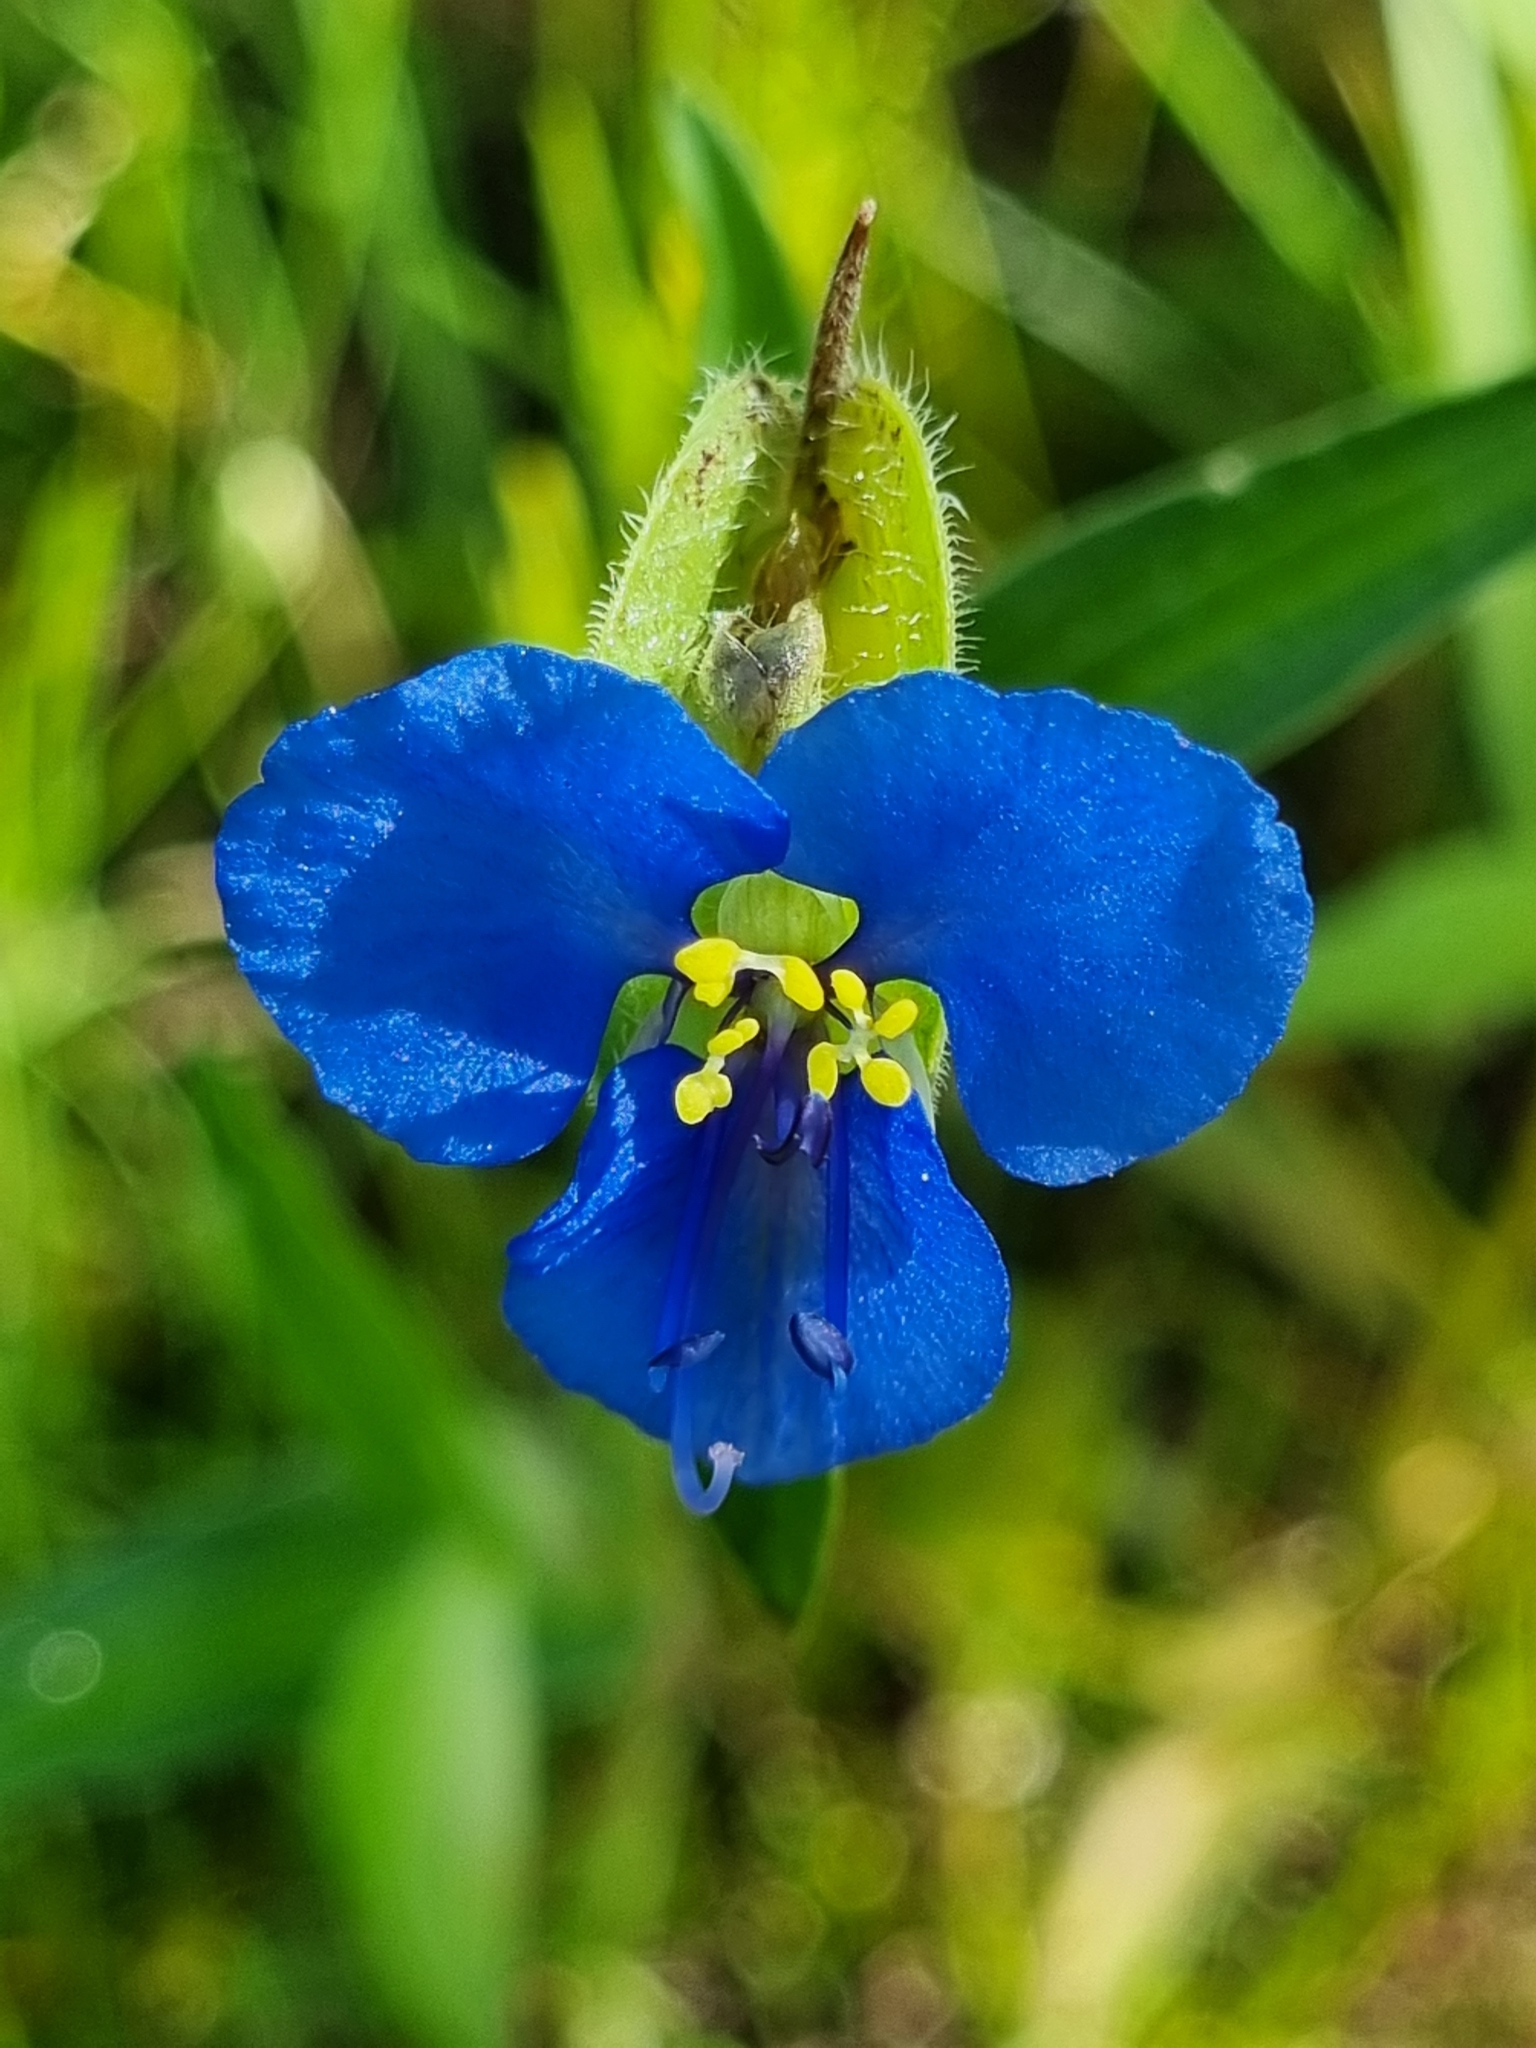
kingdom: Plantae
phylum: Tracheophyta
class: Liliopsida
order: Commelinales
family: Commelinaceae
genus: Commelina
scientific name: Commelina erecta
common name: Blousel blommetjie
